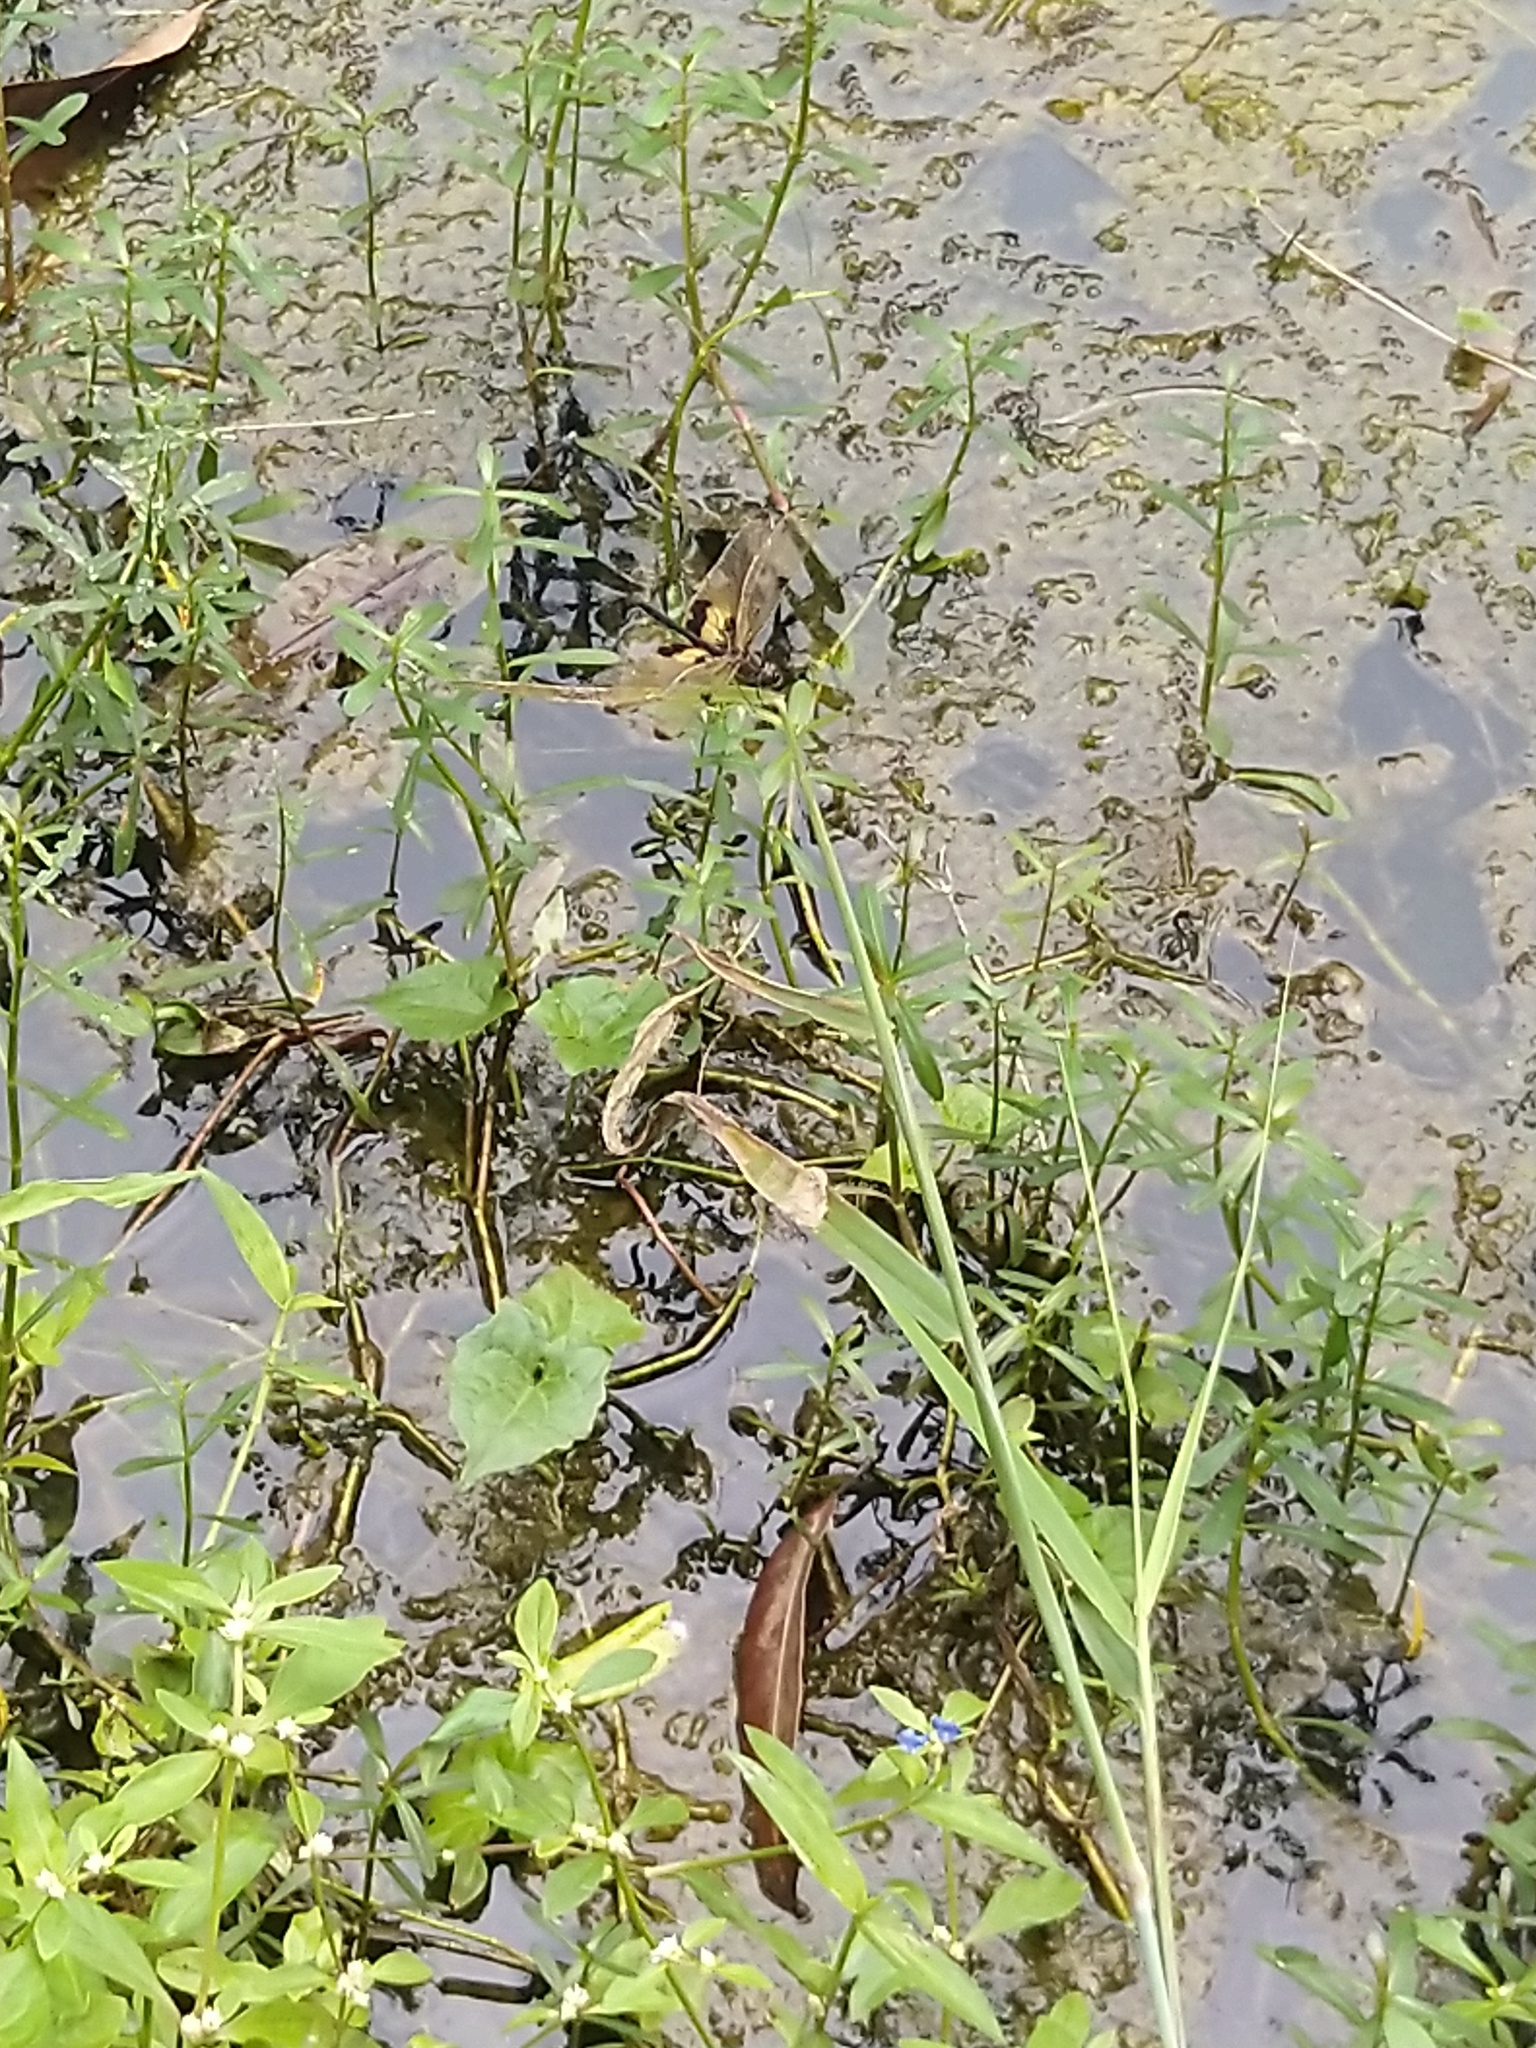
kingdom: Animalia
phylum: Arthropoda
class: Insecta
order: Odonata
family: Libellulidae
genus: Rhyothemis
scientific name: Rhyothemis variegata
